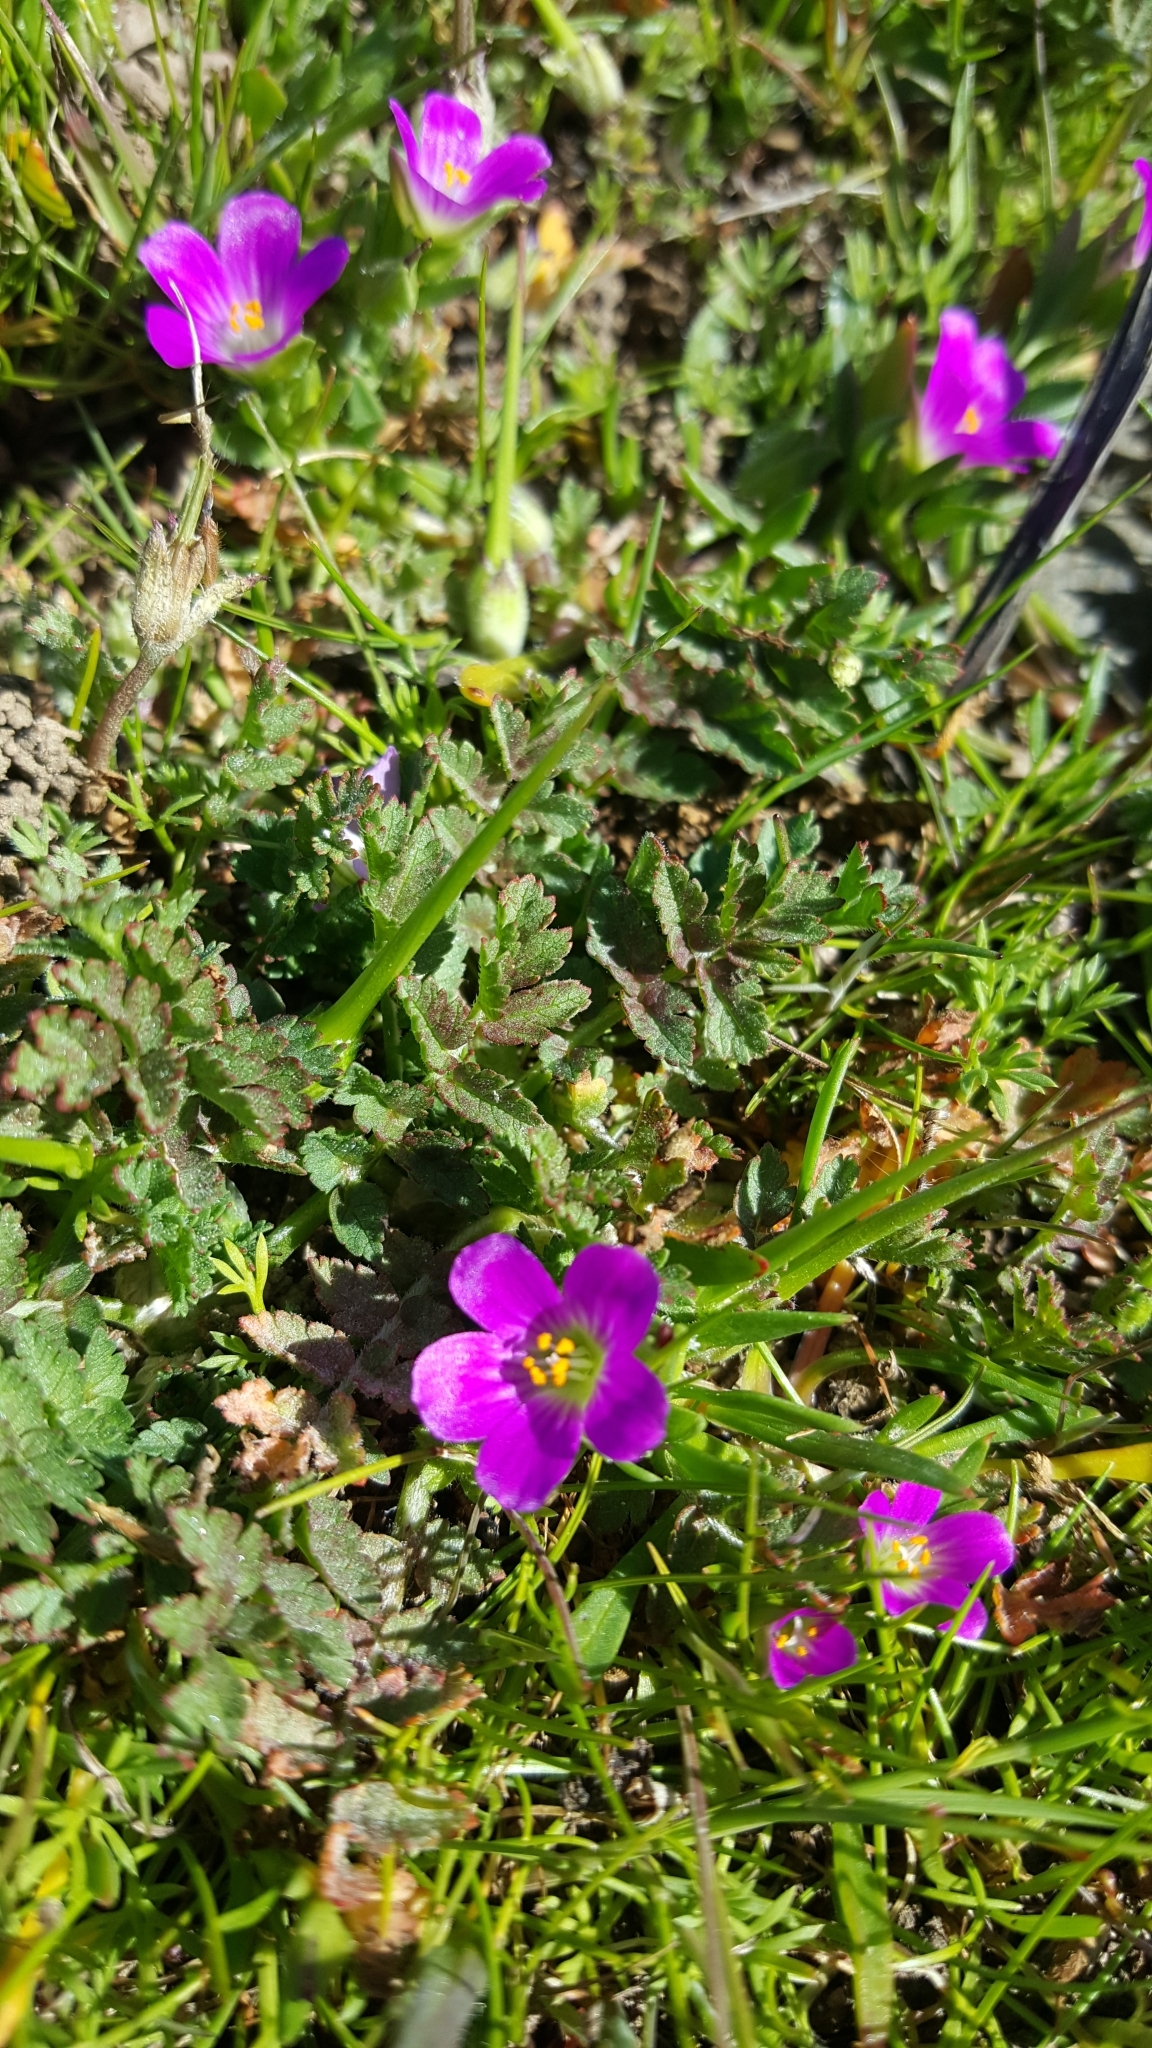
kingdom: Plantae
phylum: Tracheophyta
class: Magnoliopsida
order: Caryophyllales
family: Montiaceae
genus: Calandrinia
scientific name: Calandrinia menziesii
